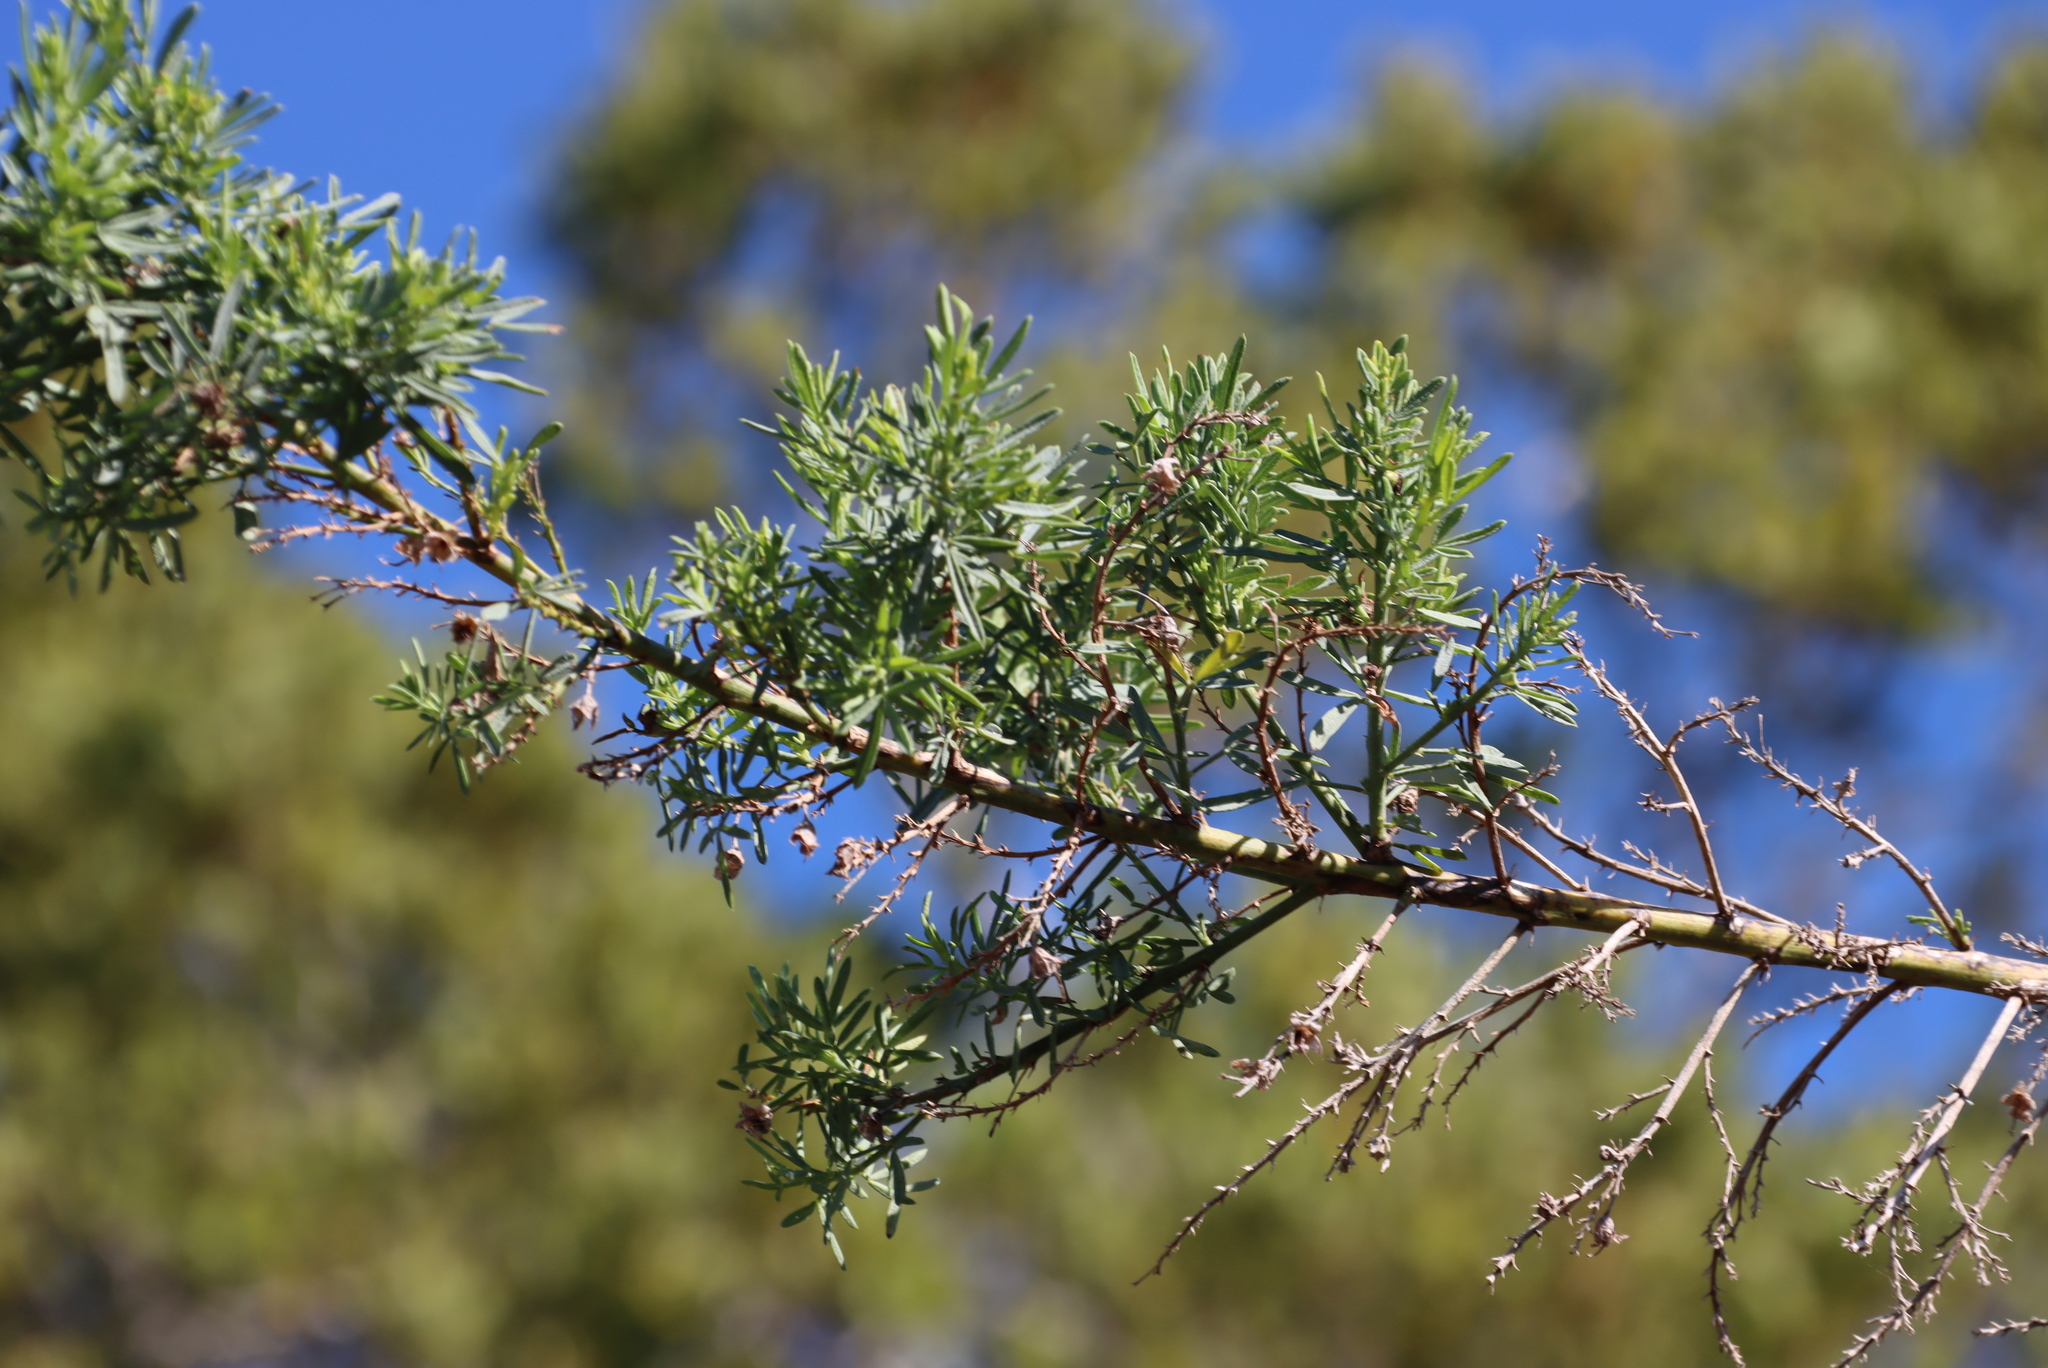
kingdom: Plantae
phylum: Tracheophyta
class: Magnoliopsida
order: Fabales
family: Fabaceae
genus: Psoralea
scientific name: Psoralea axillaris
